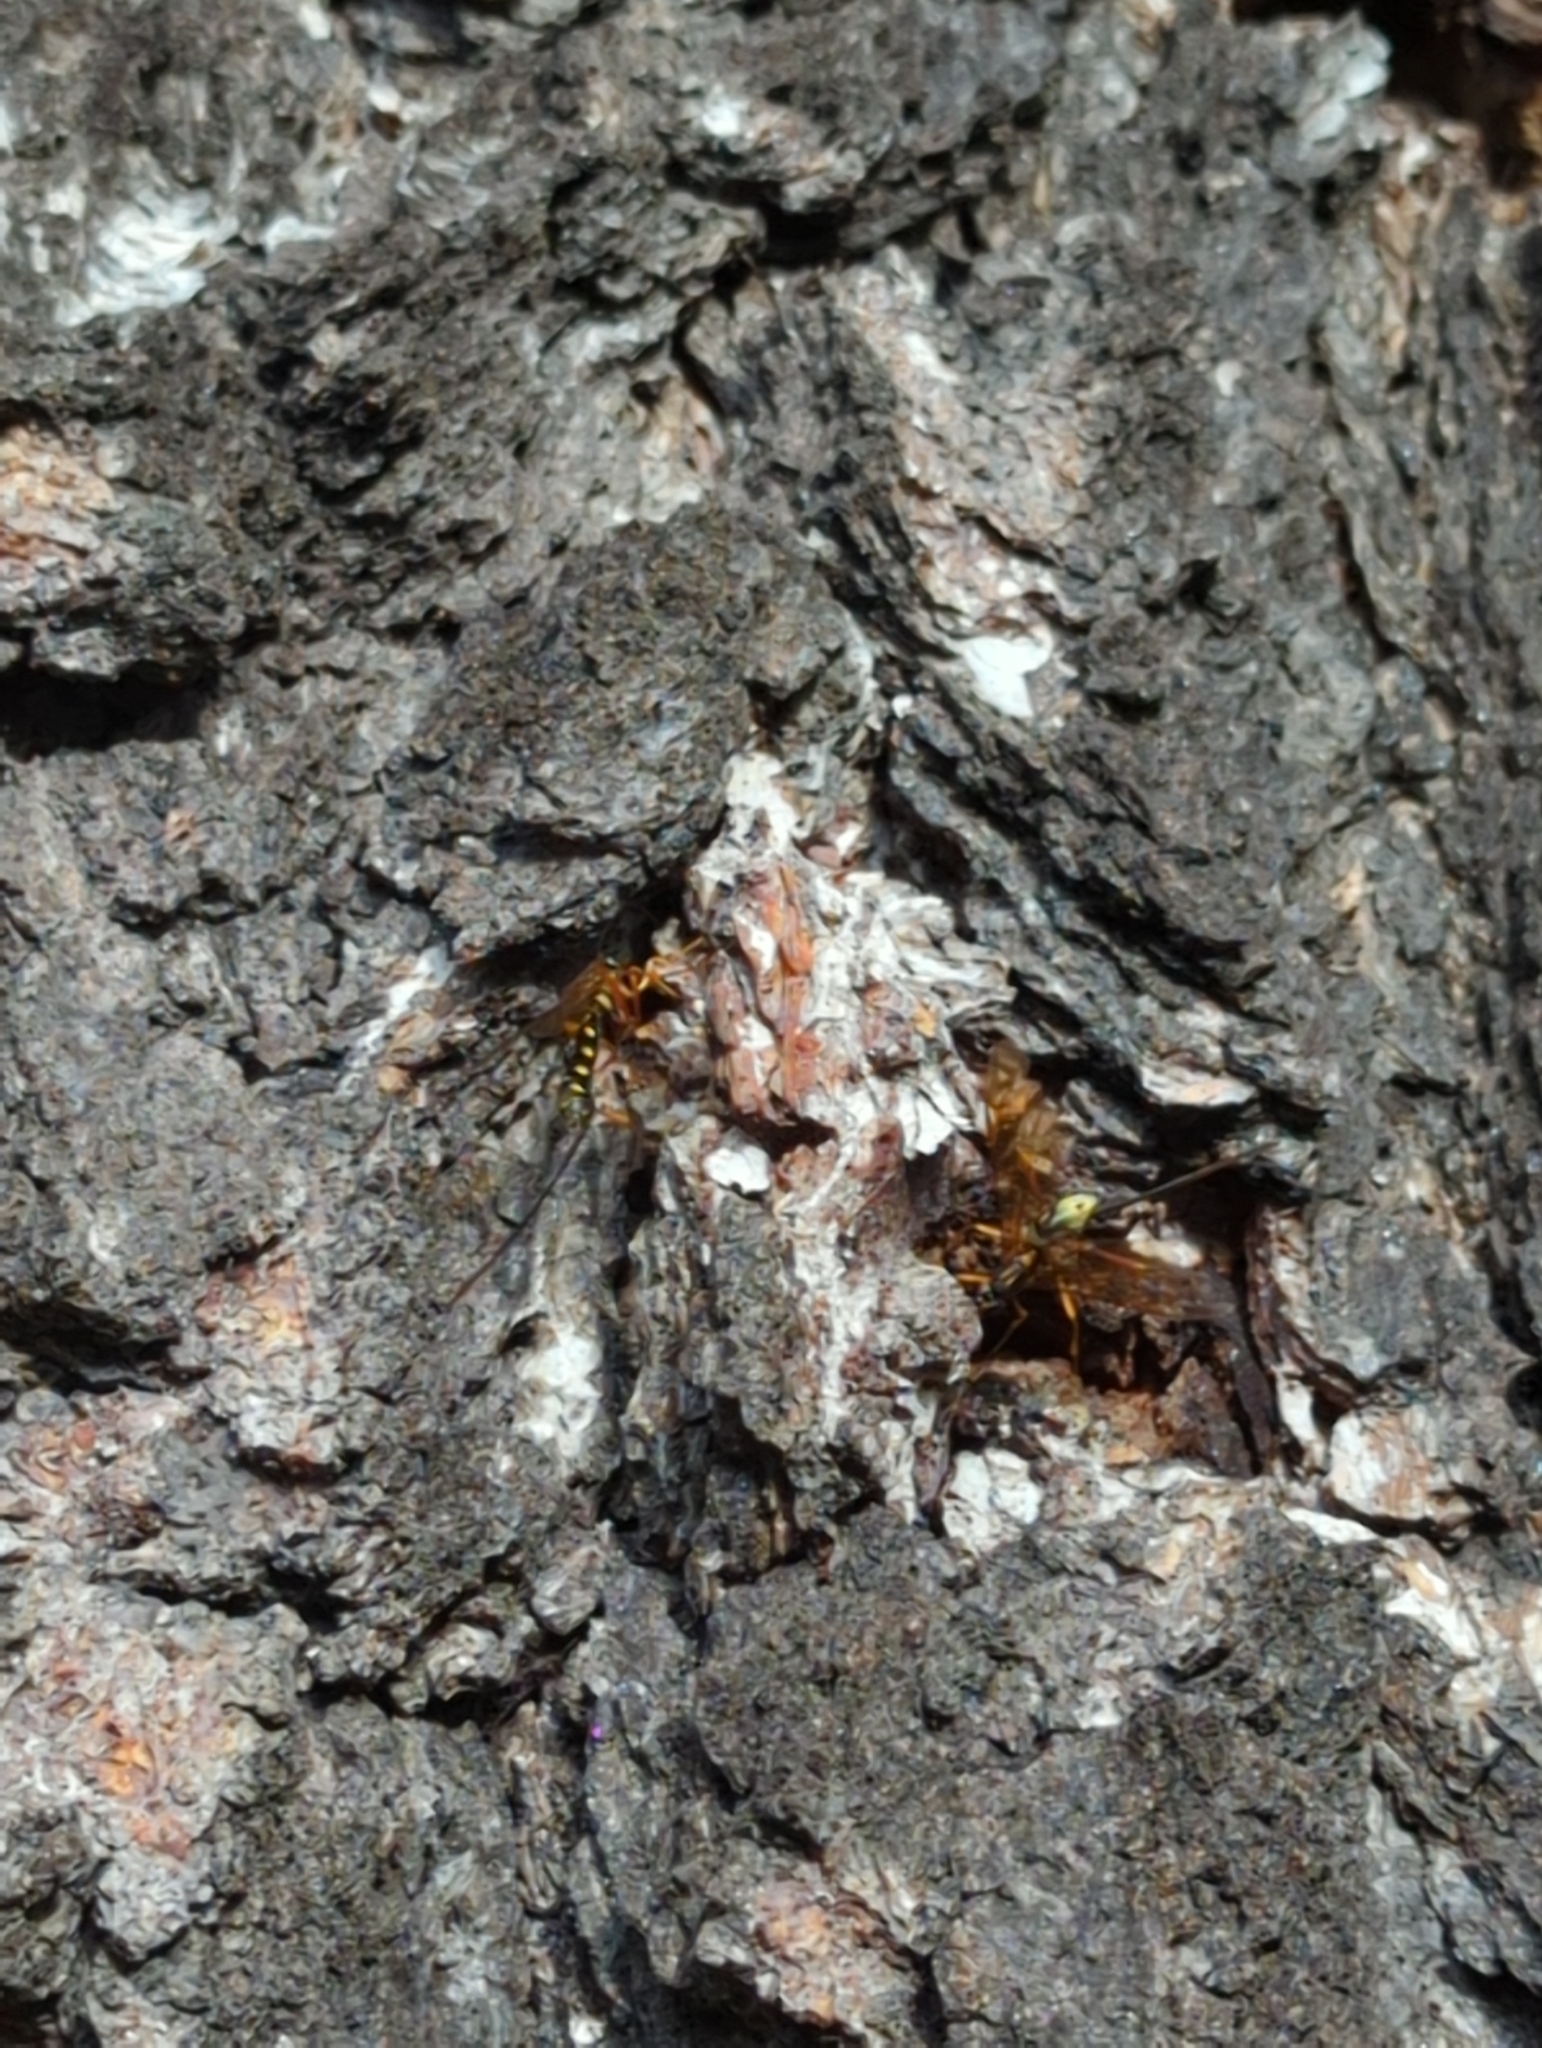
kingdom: Animalia
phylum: Arthropoda
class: Insecta
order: Hymenoptera
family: Ichneumonidae
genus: Megarhyssa
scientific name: Megarhyssa superba
